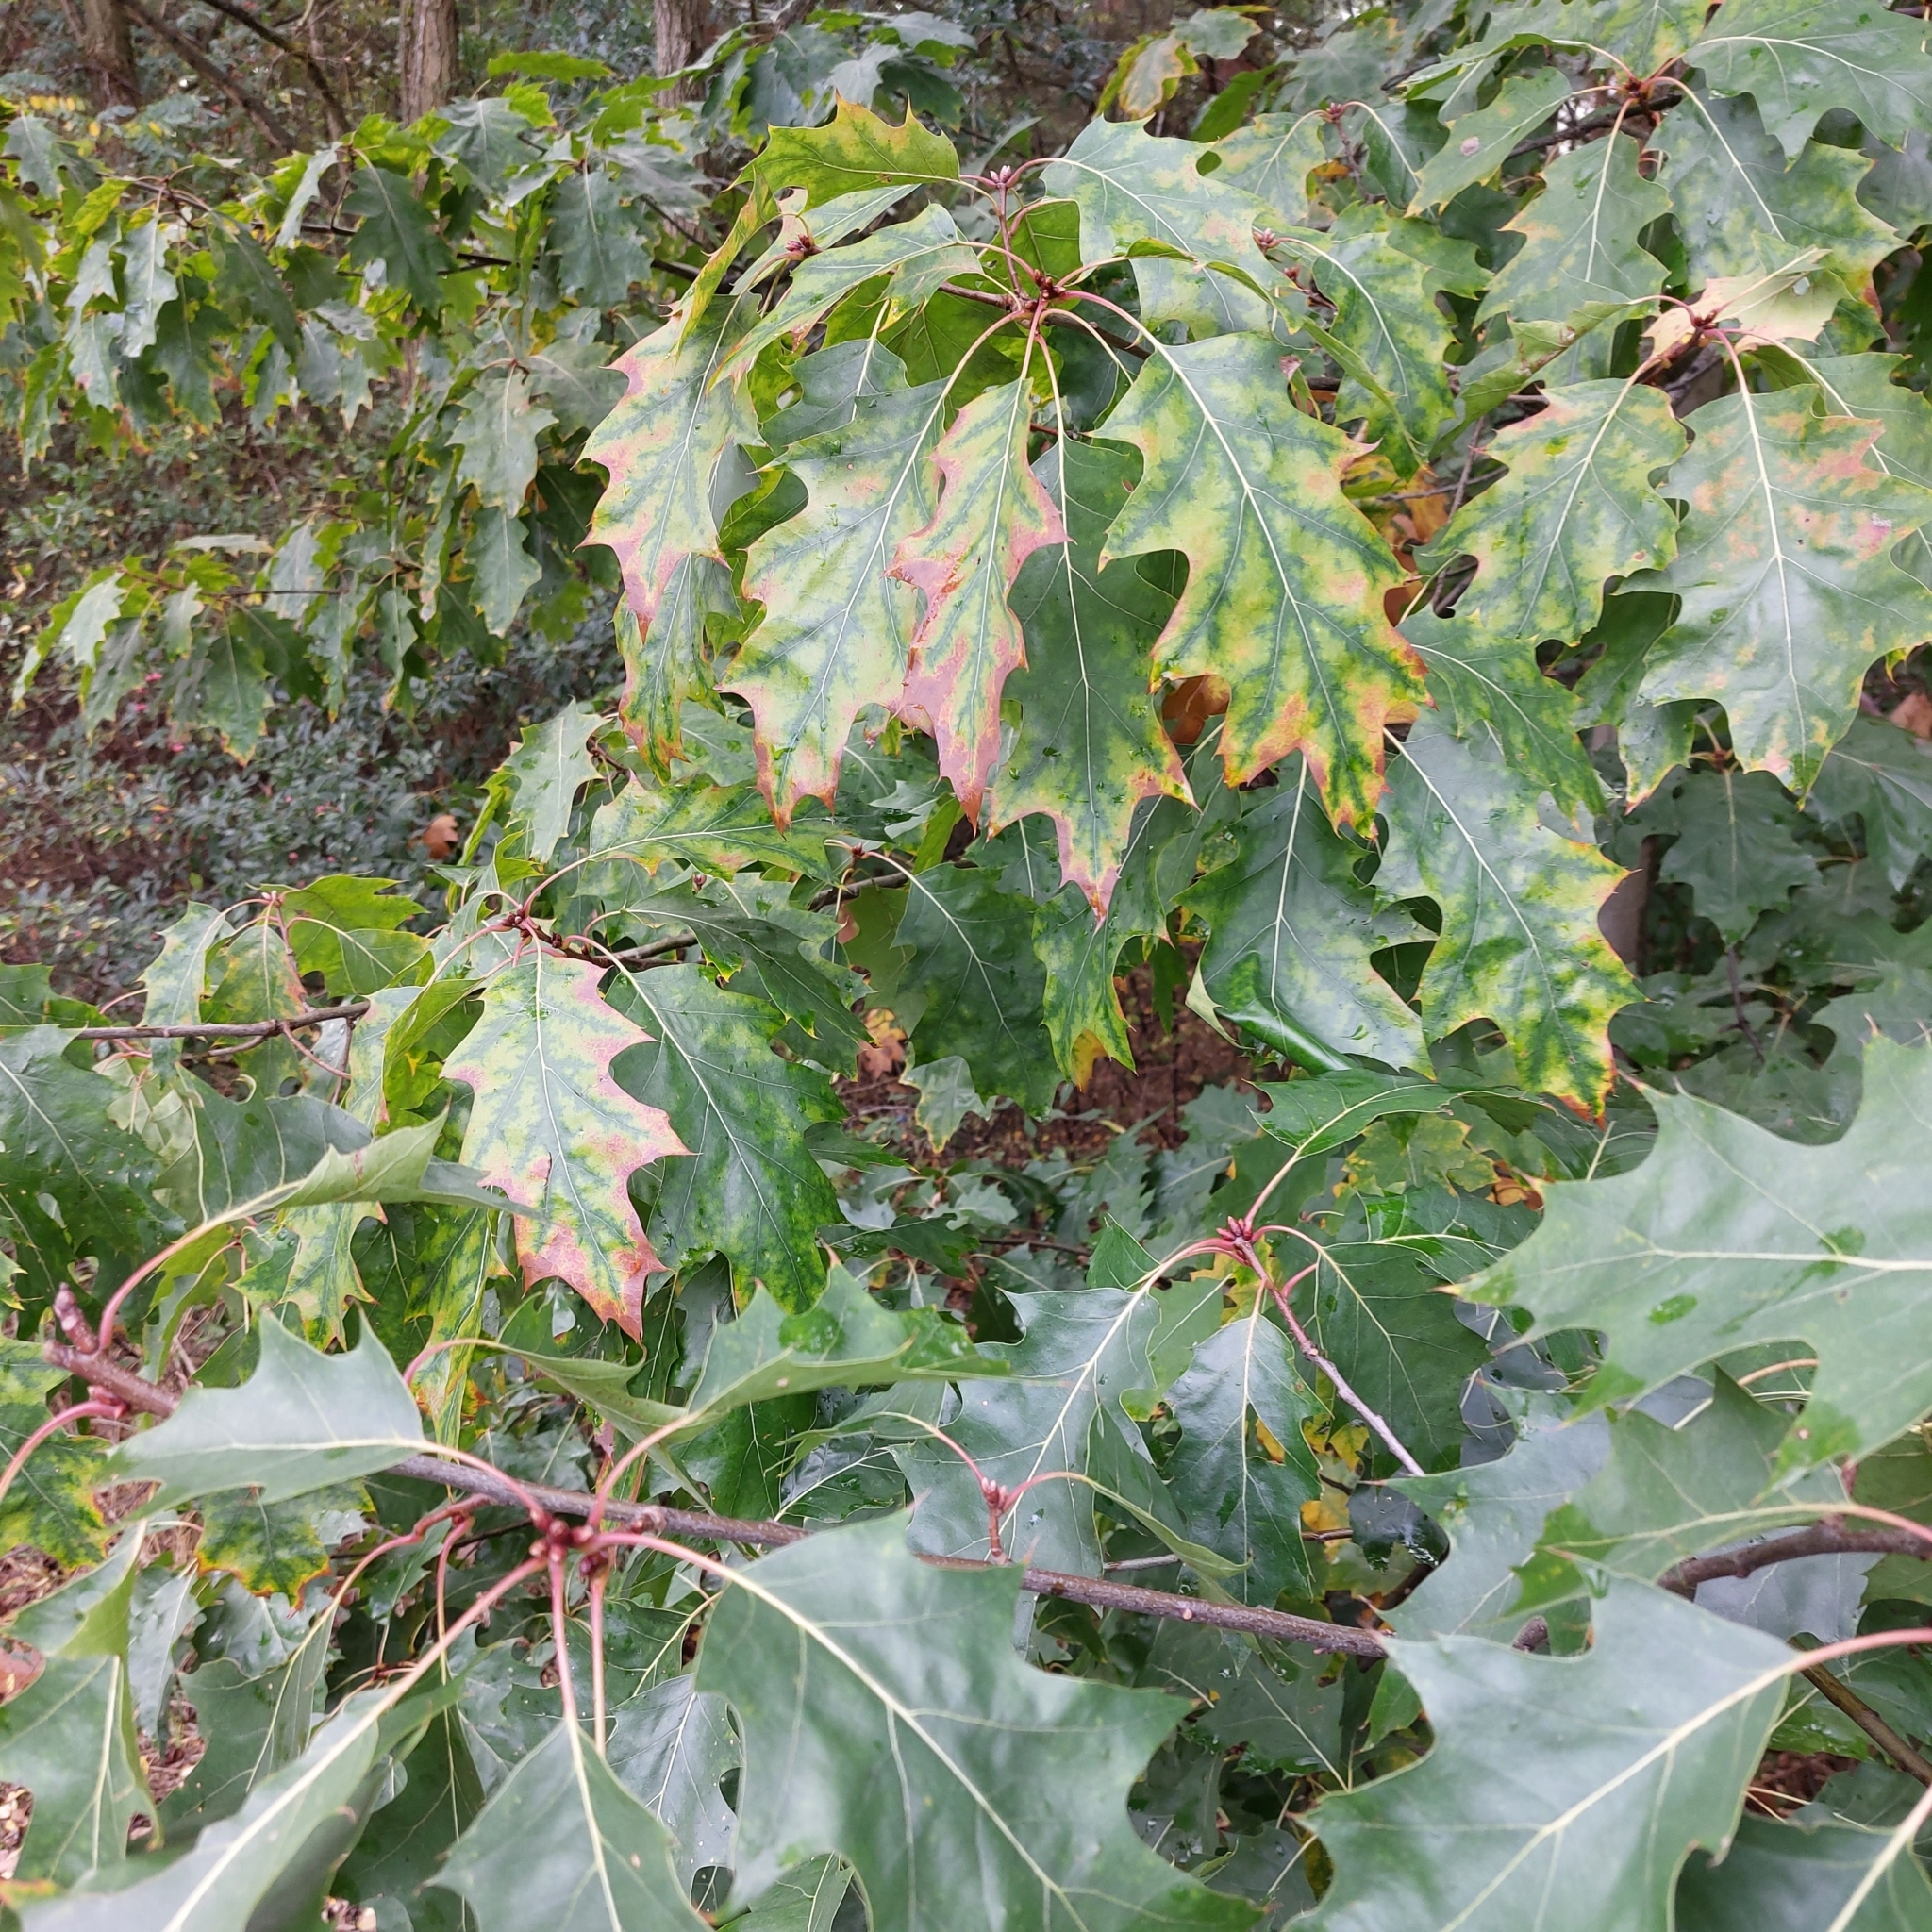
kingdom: Plantae
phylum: Tracheophyta
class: Magnoliopsida
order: Fagales
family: Fagaceae
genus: Quercus
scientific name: Quercus rubra
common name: Red oak
